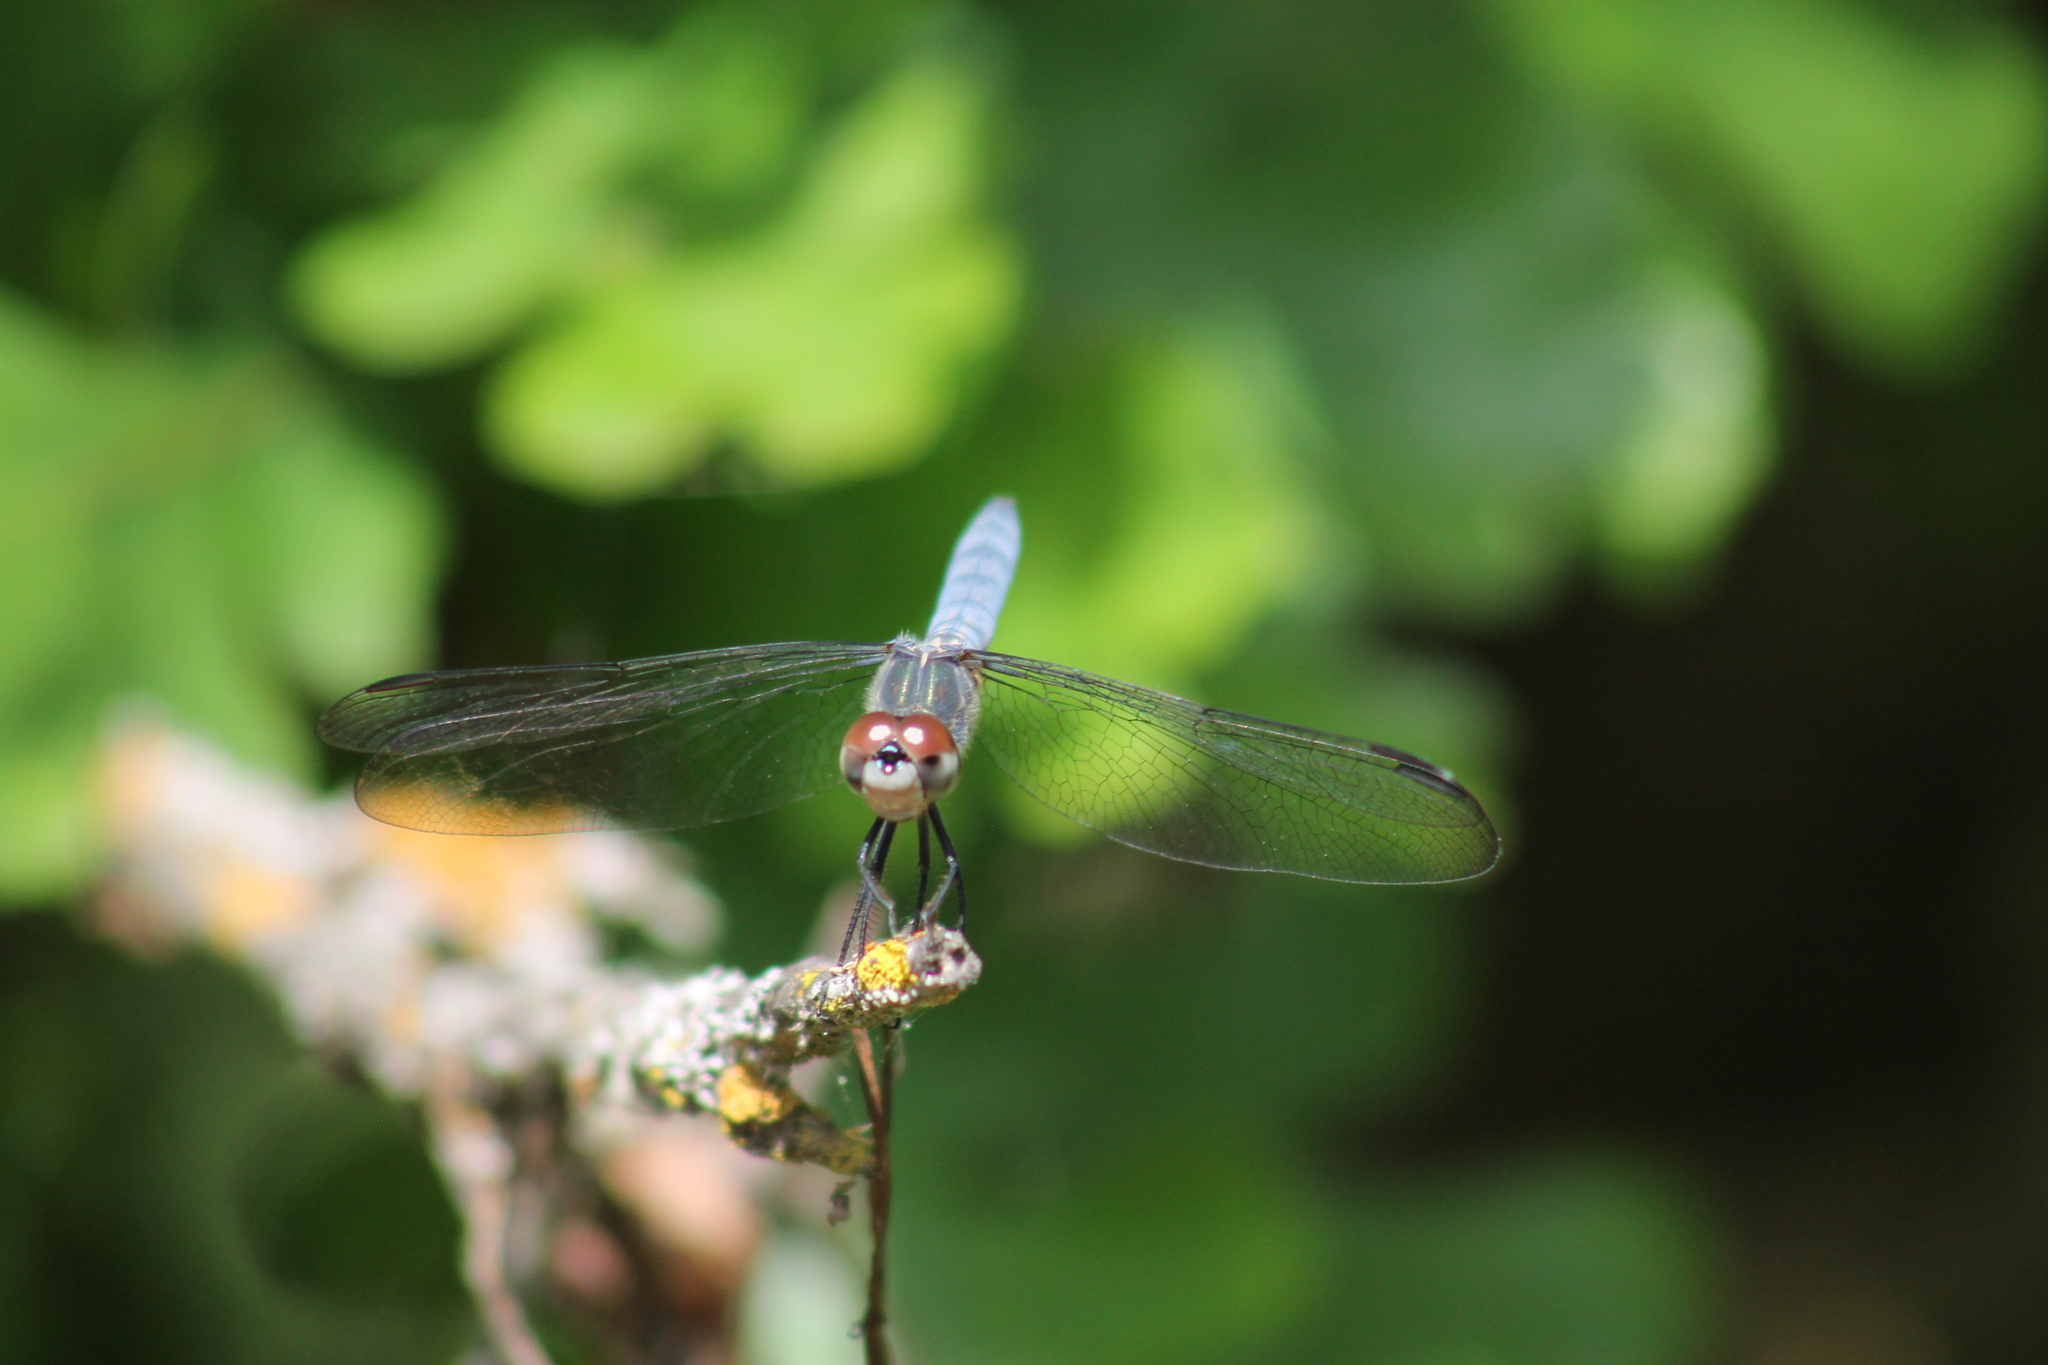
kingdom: Animalia
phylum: Arthropoda
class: Insecta
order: Odonata
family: Libellulidae
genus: Pachydiplax
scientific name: Pachydiplax longipennis
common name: Blue dasher
